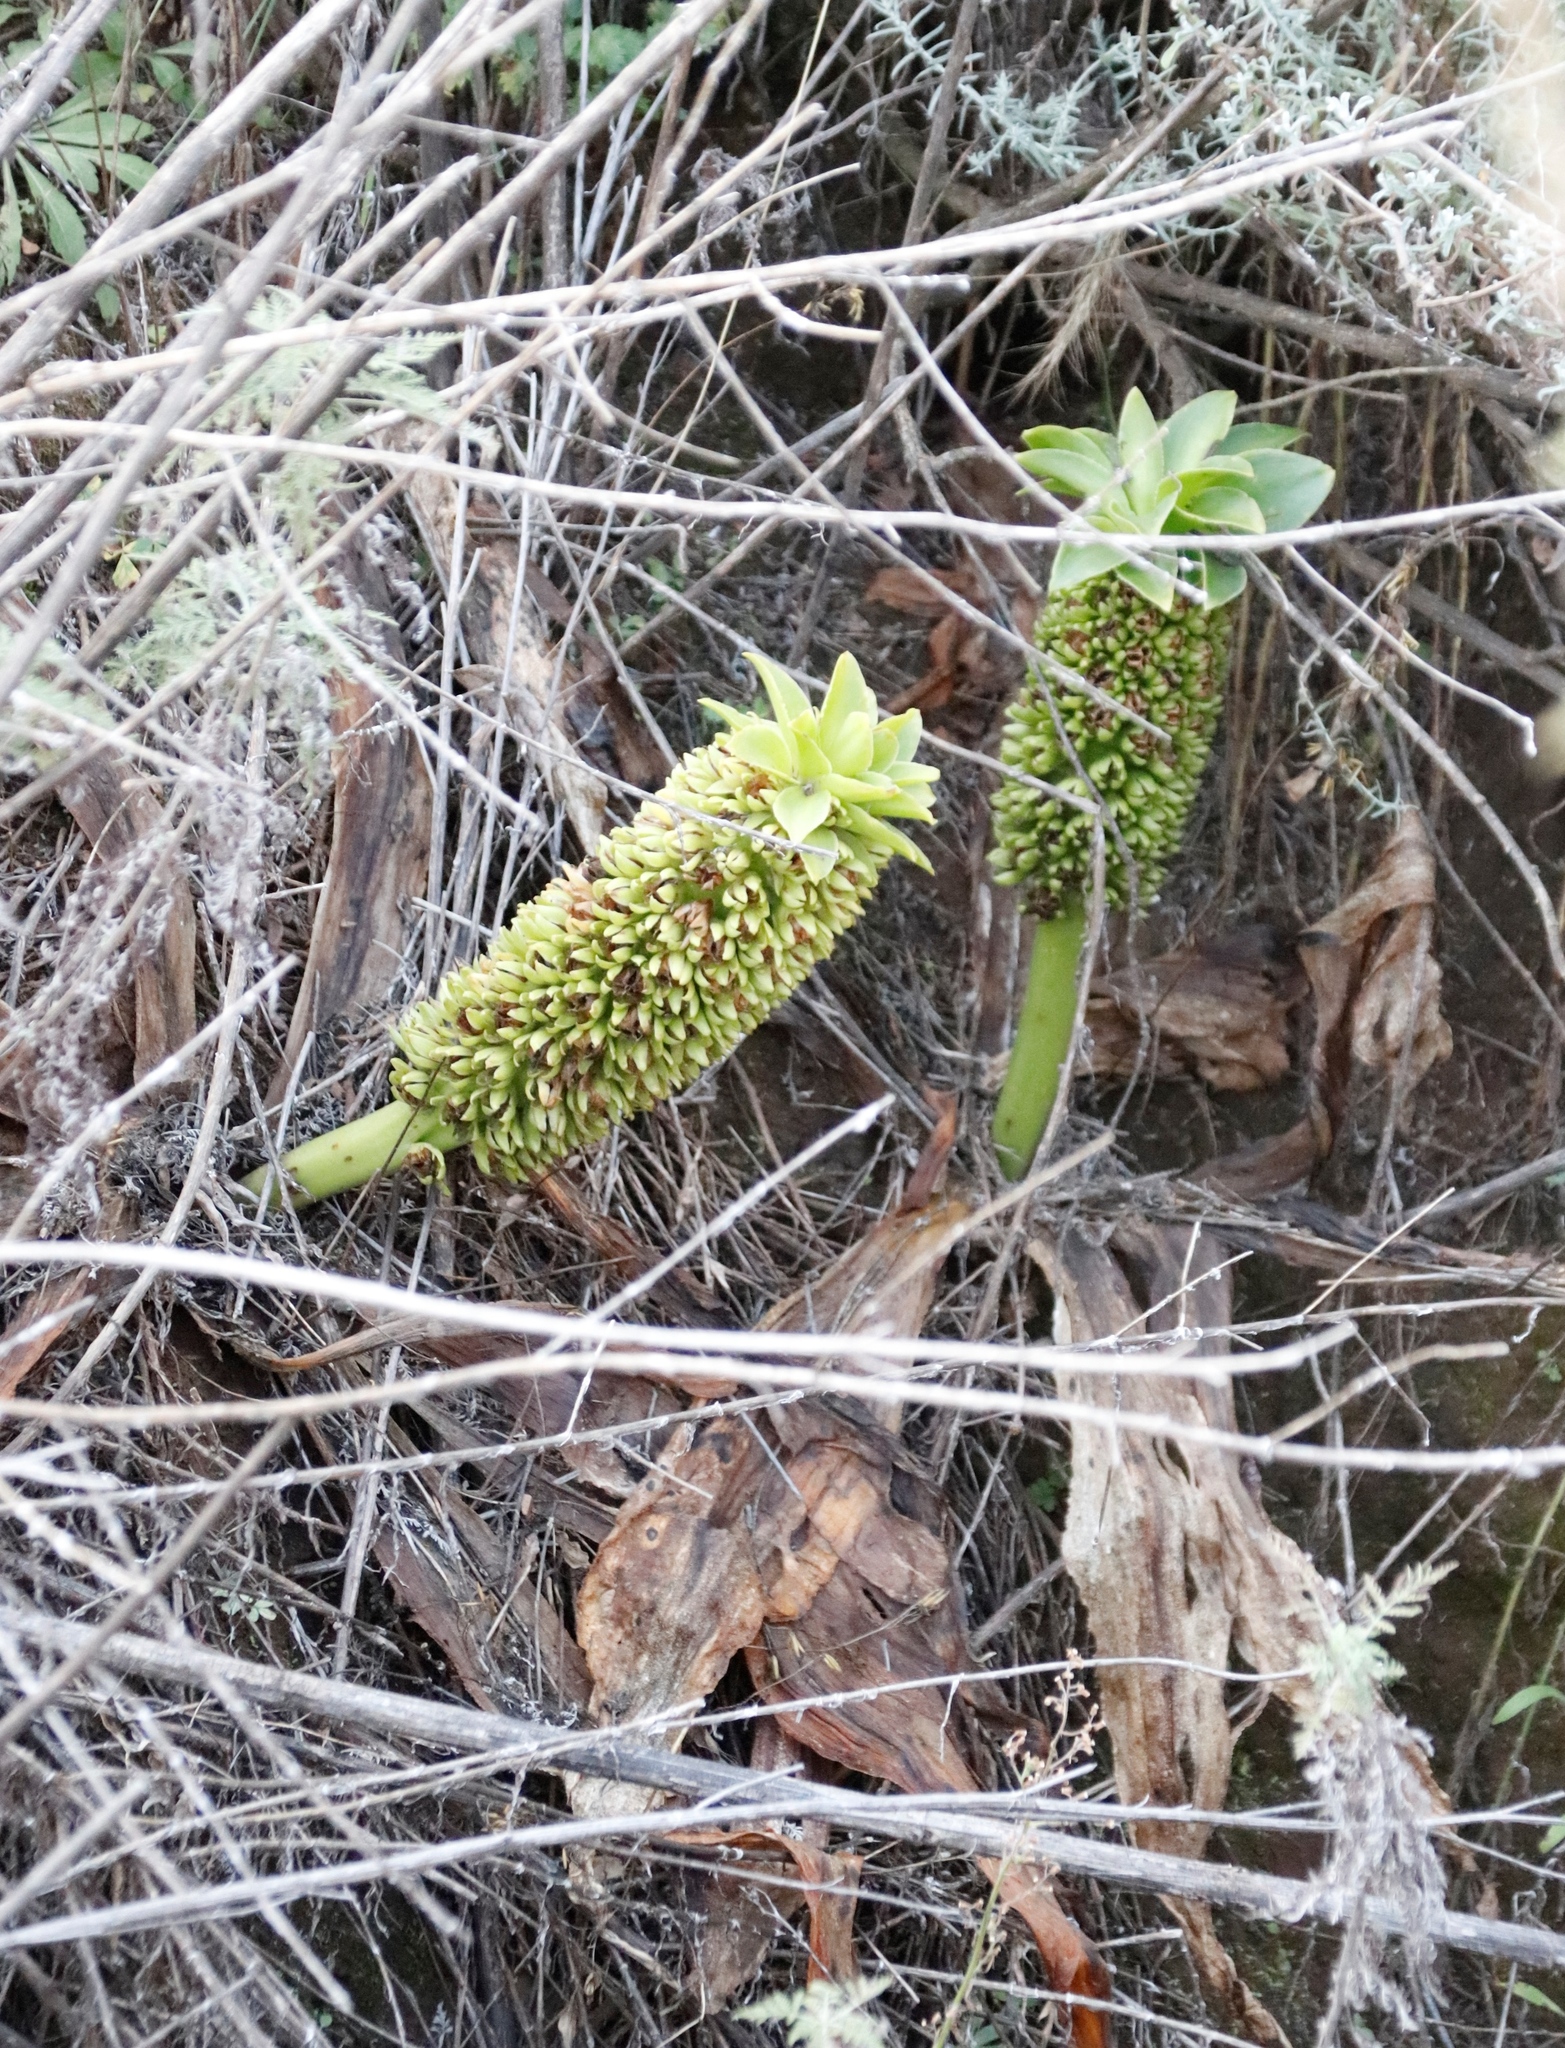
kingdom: Plantae
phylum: Tracheophyta
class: Liliopsida
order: Asparagales
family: Asparagaceae
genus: Eucomis
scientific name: Eucomis humilis
